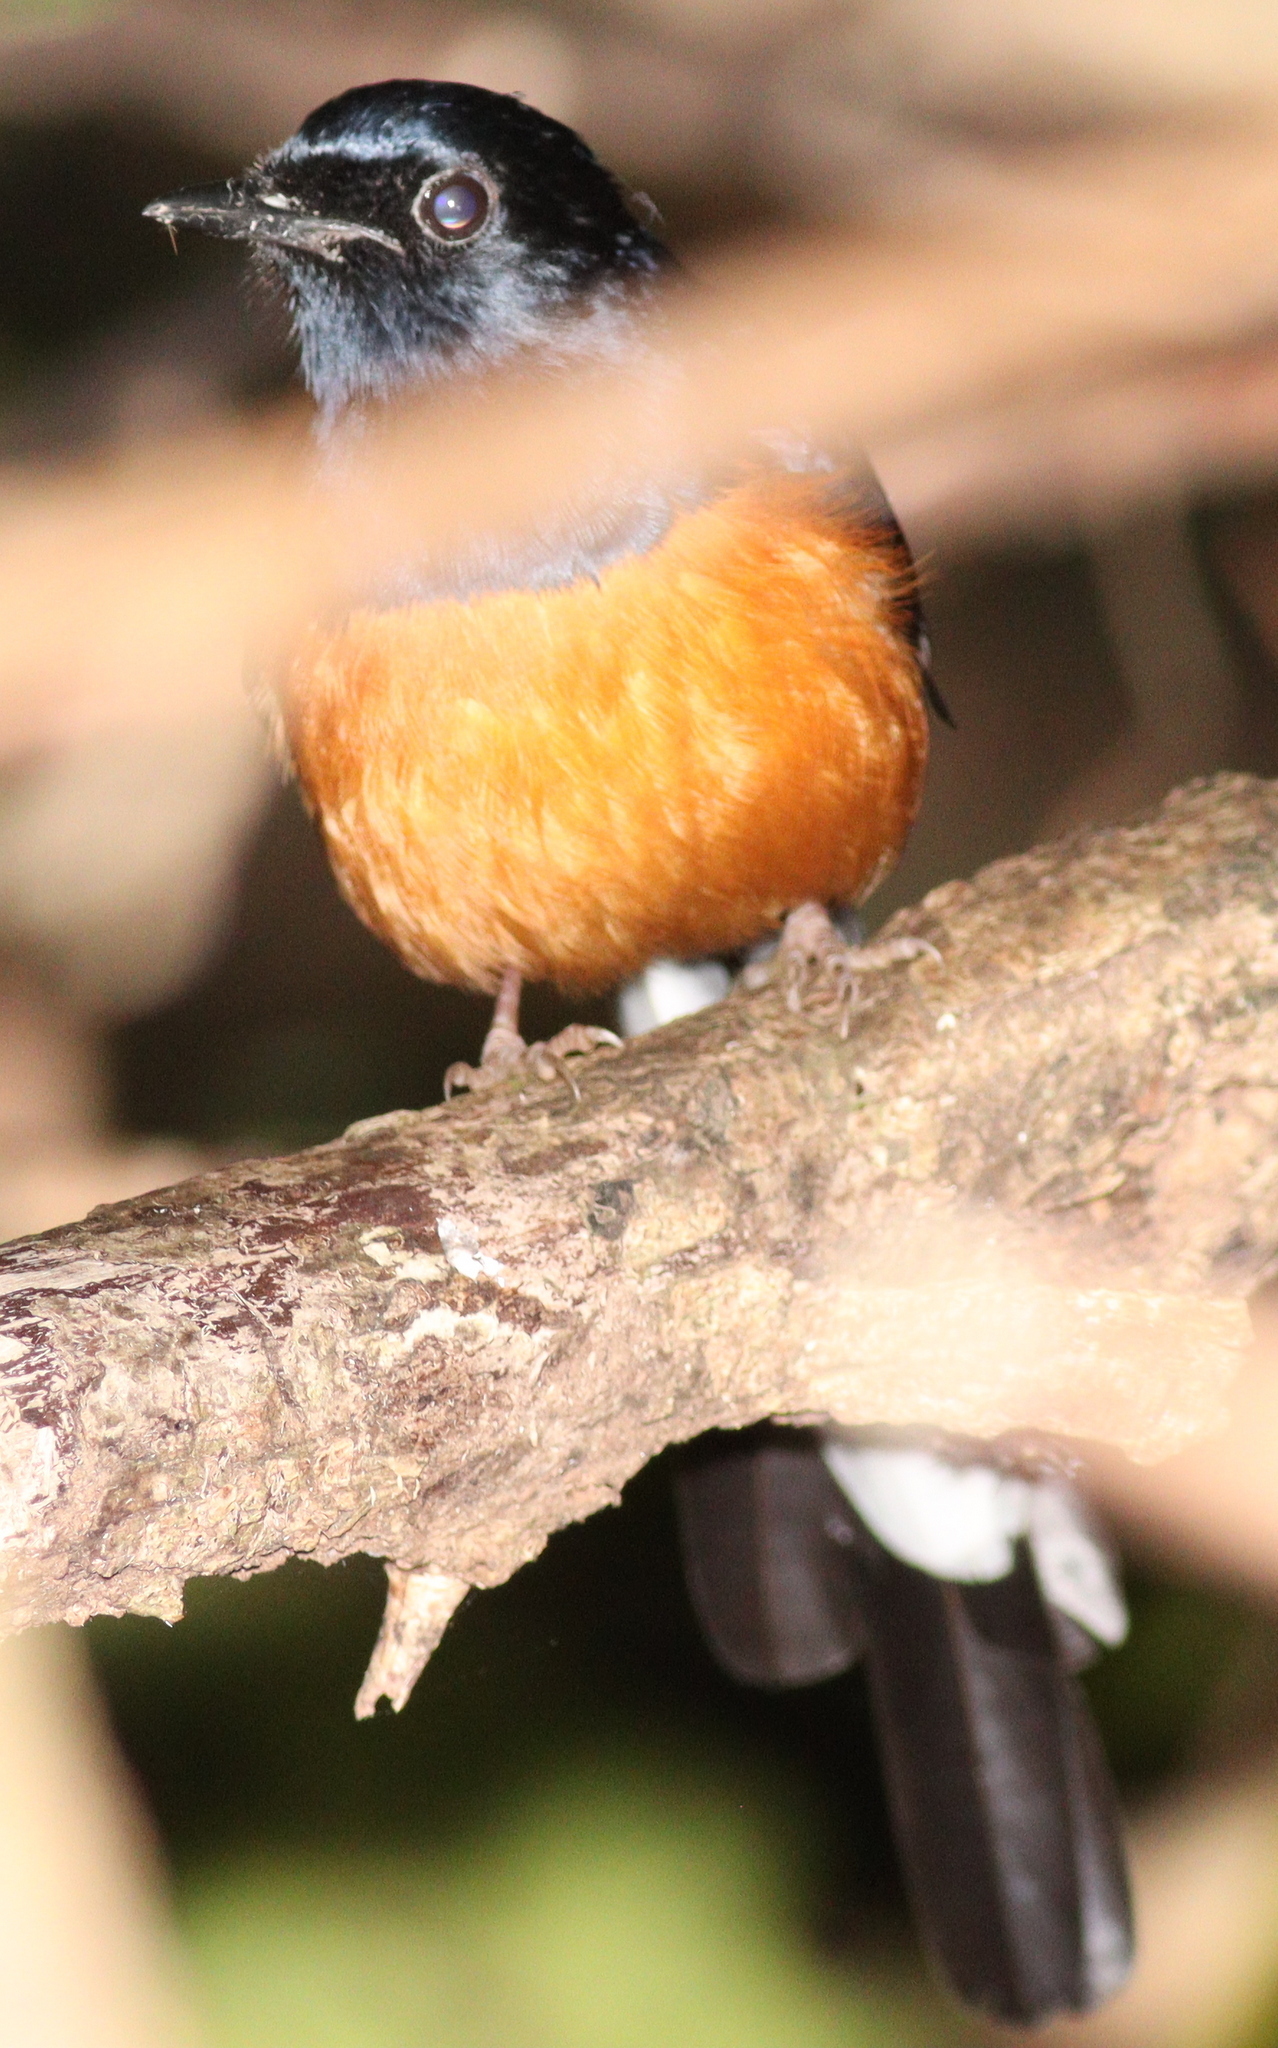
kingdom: Animalia
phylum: Chordata
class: Aves
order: Passeriformes
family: Muscicapidae
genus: Copsychus
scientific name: Copsychus malabaricus
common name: White-rumped shama
